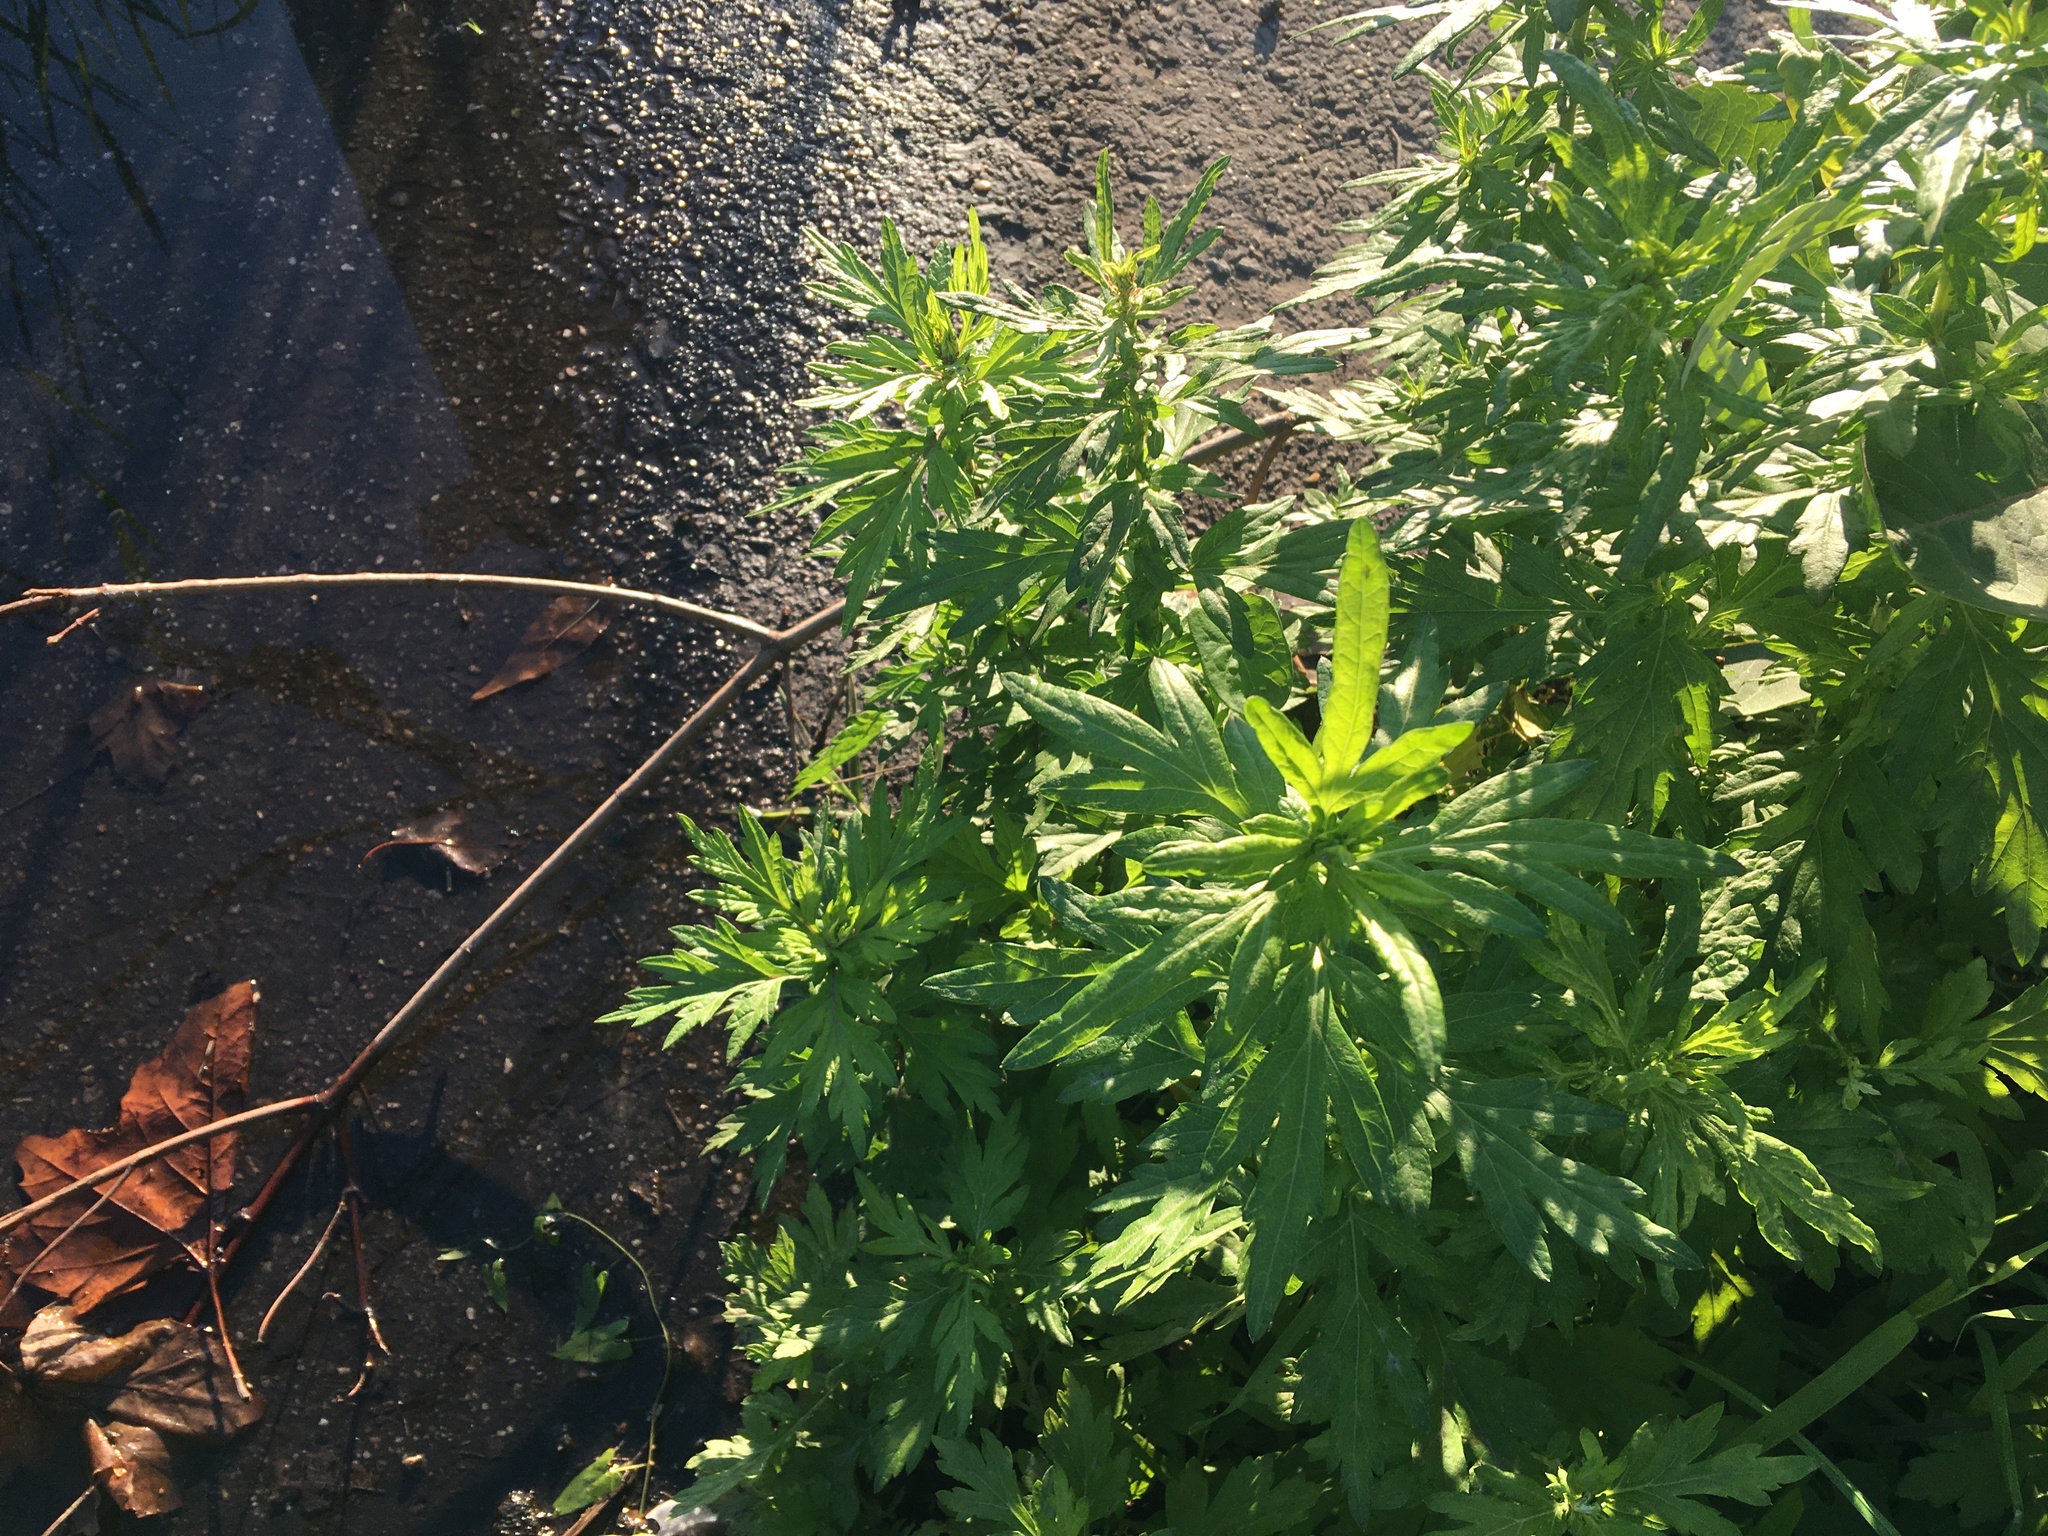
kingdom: Plantae
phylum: Tracheophyta
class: Magnoliopsida
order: Asterales
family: Asteraceae
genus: Artemisia
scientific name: Artemisia vulgaris
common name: Mugwort
